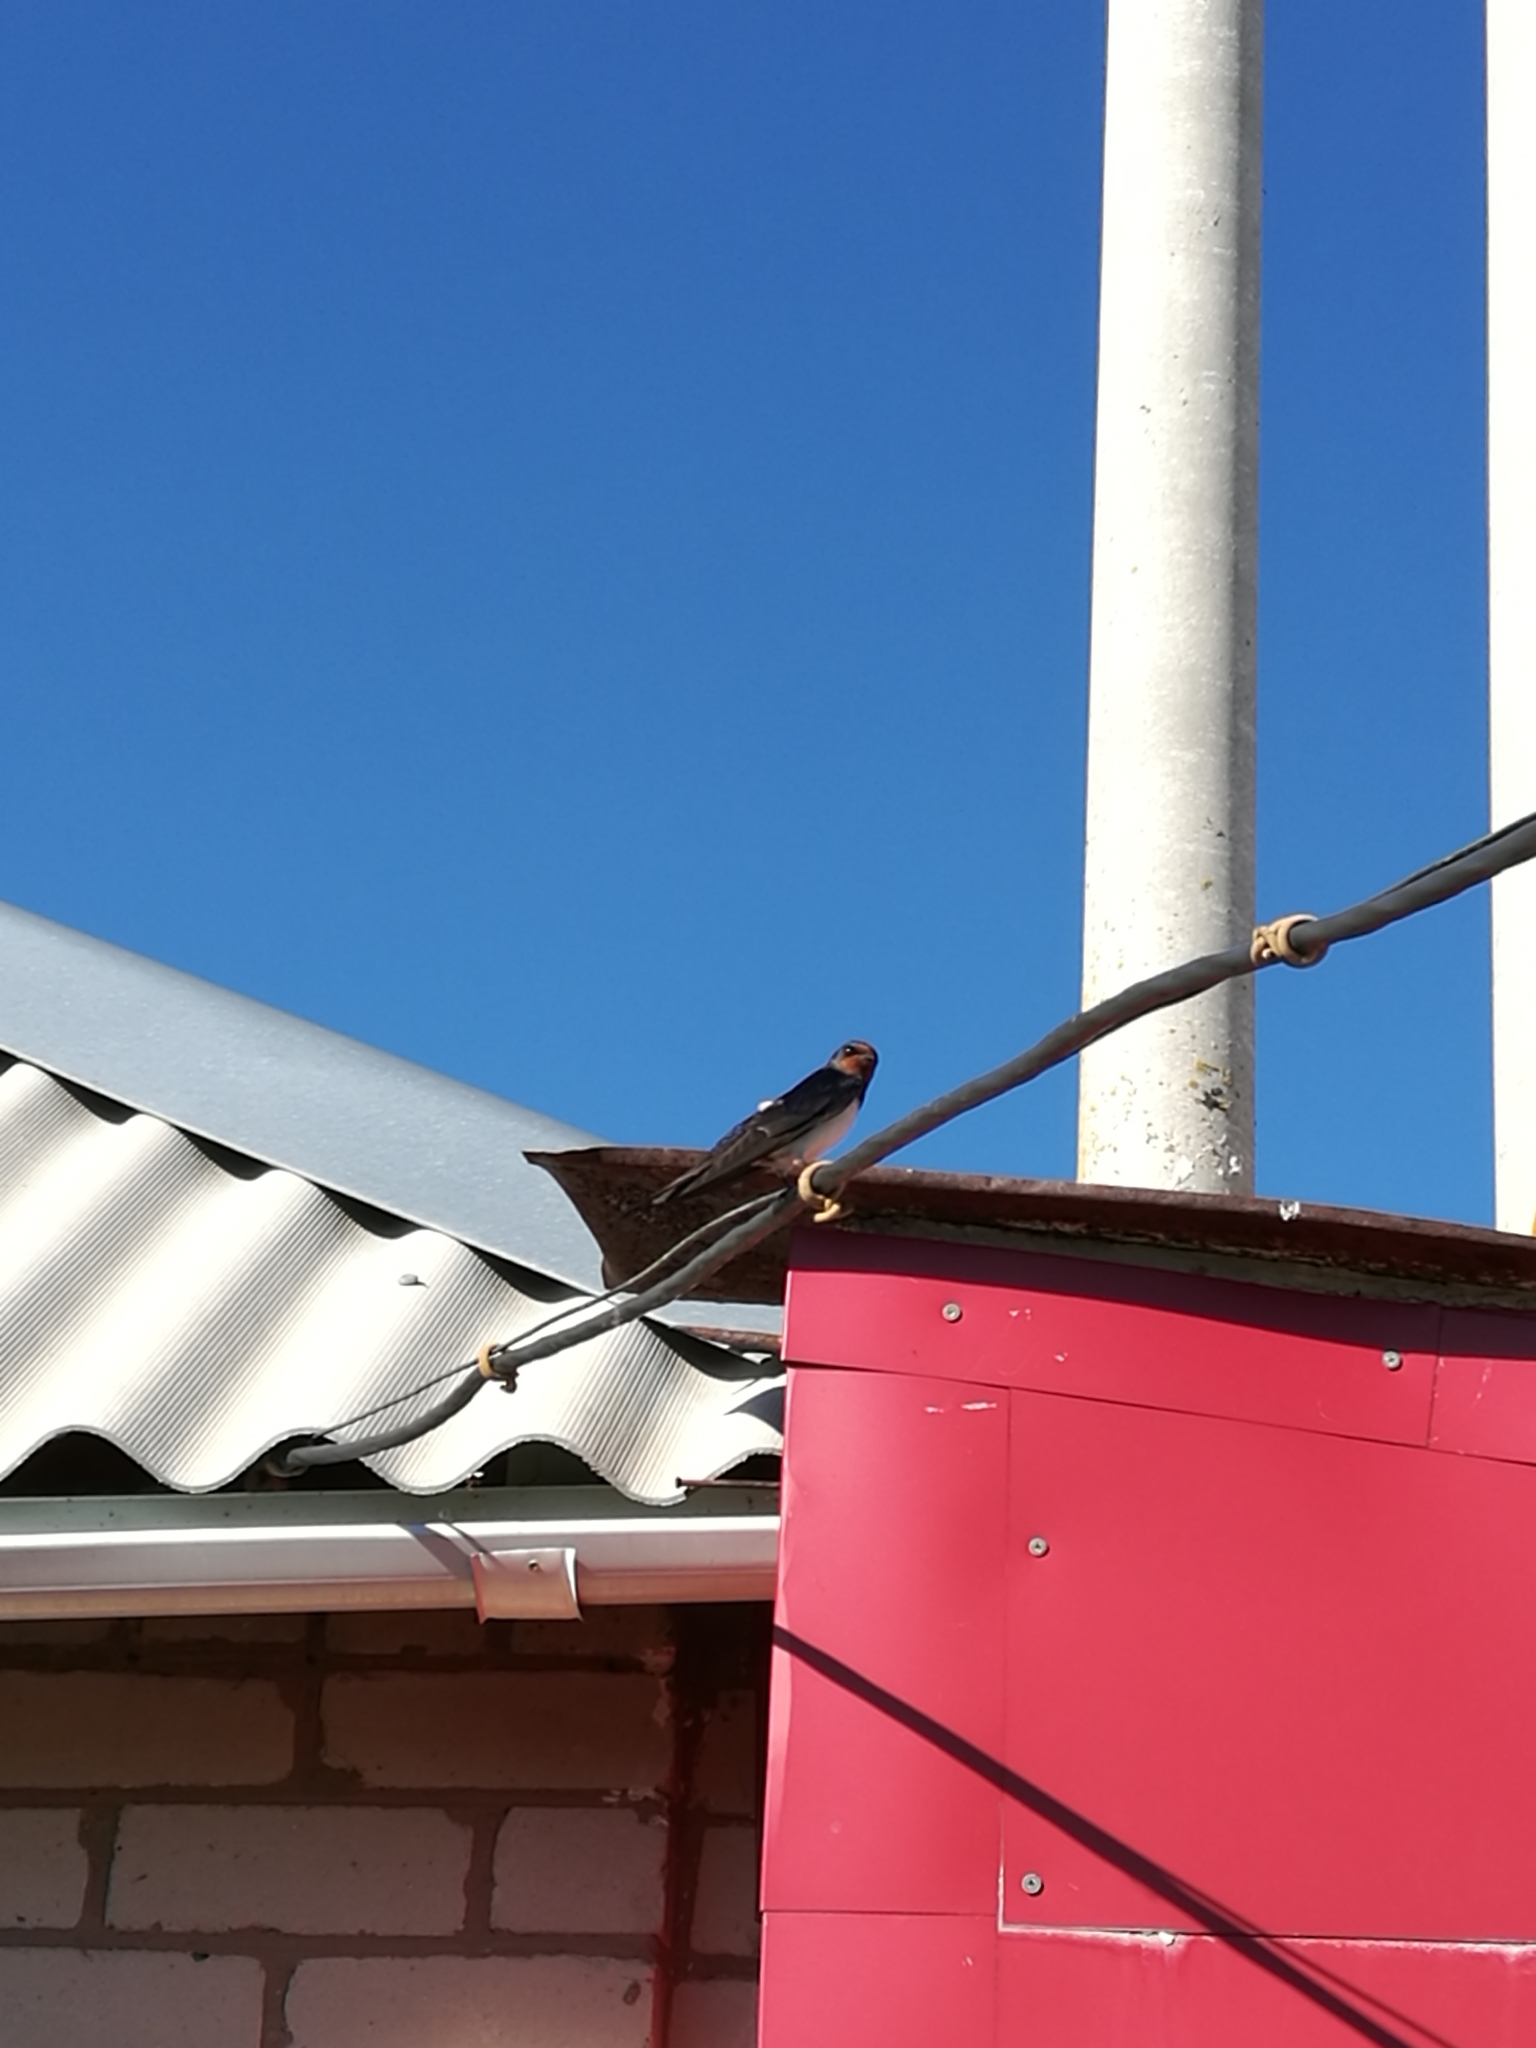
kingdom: Animalia
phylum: Chordata
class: Aves
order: Passeriformes
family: Hirundinidae
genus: Hirundo
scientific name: Hirundo rustica
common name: Barn swallow
